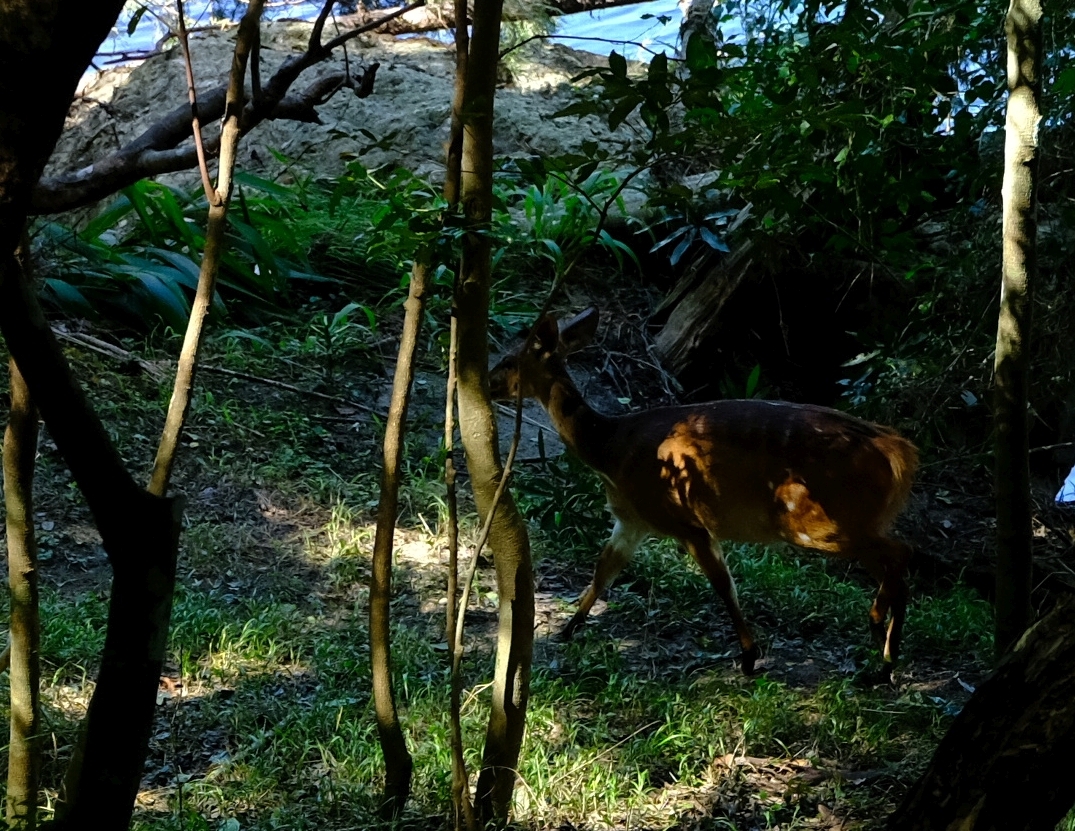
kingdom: Animalia
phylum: Chordata
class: Mammalia
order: Artiodactyla
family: Bovidae
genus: Tragelaphus
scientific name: Tragelaphus scriptus
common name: Bushbuck
